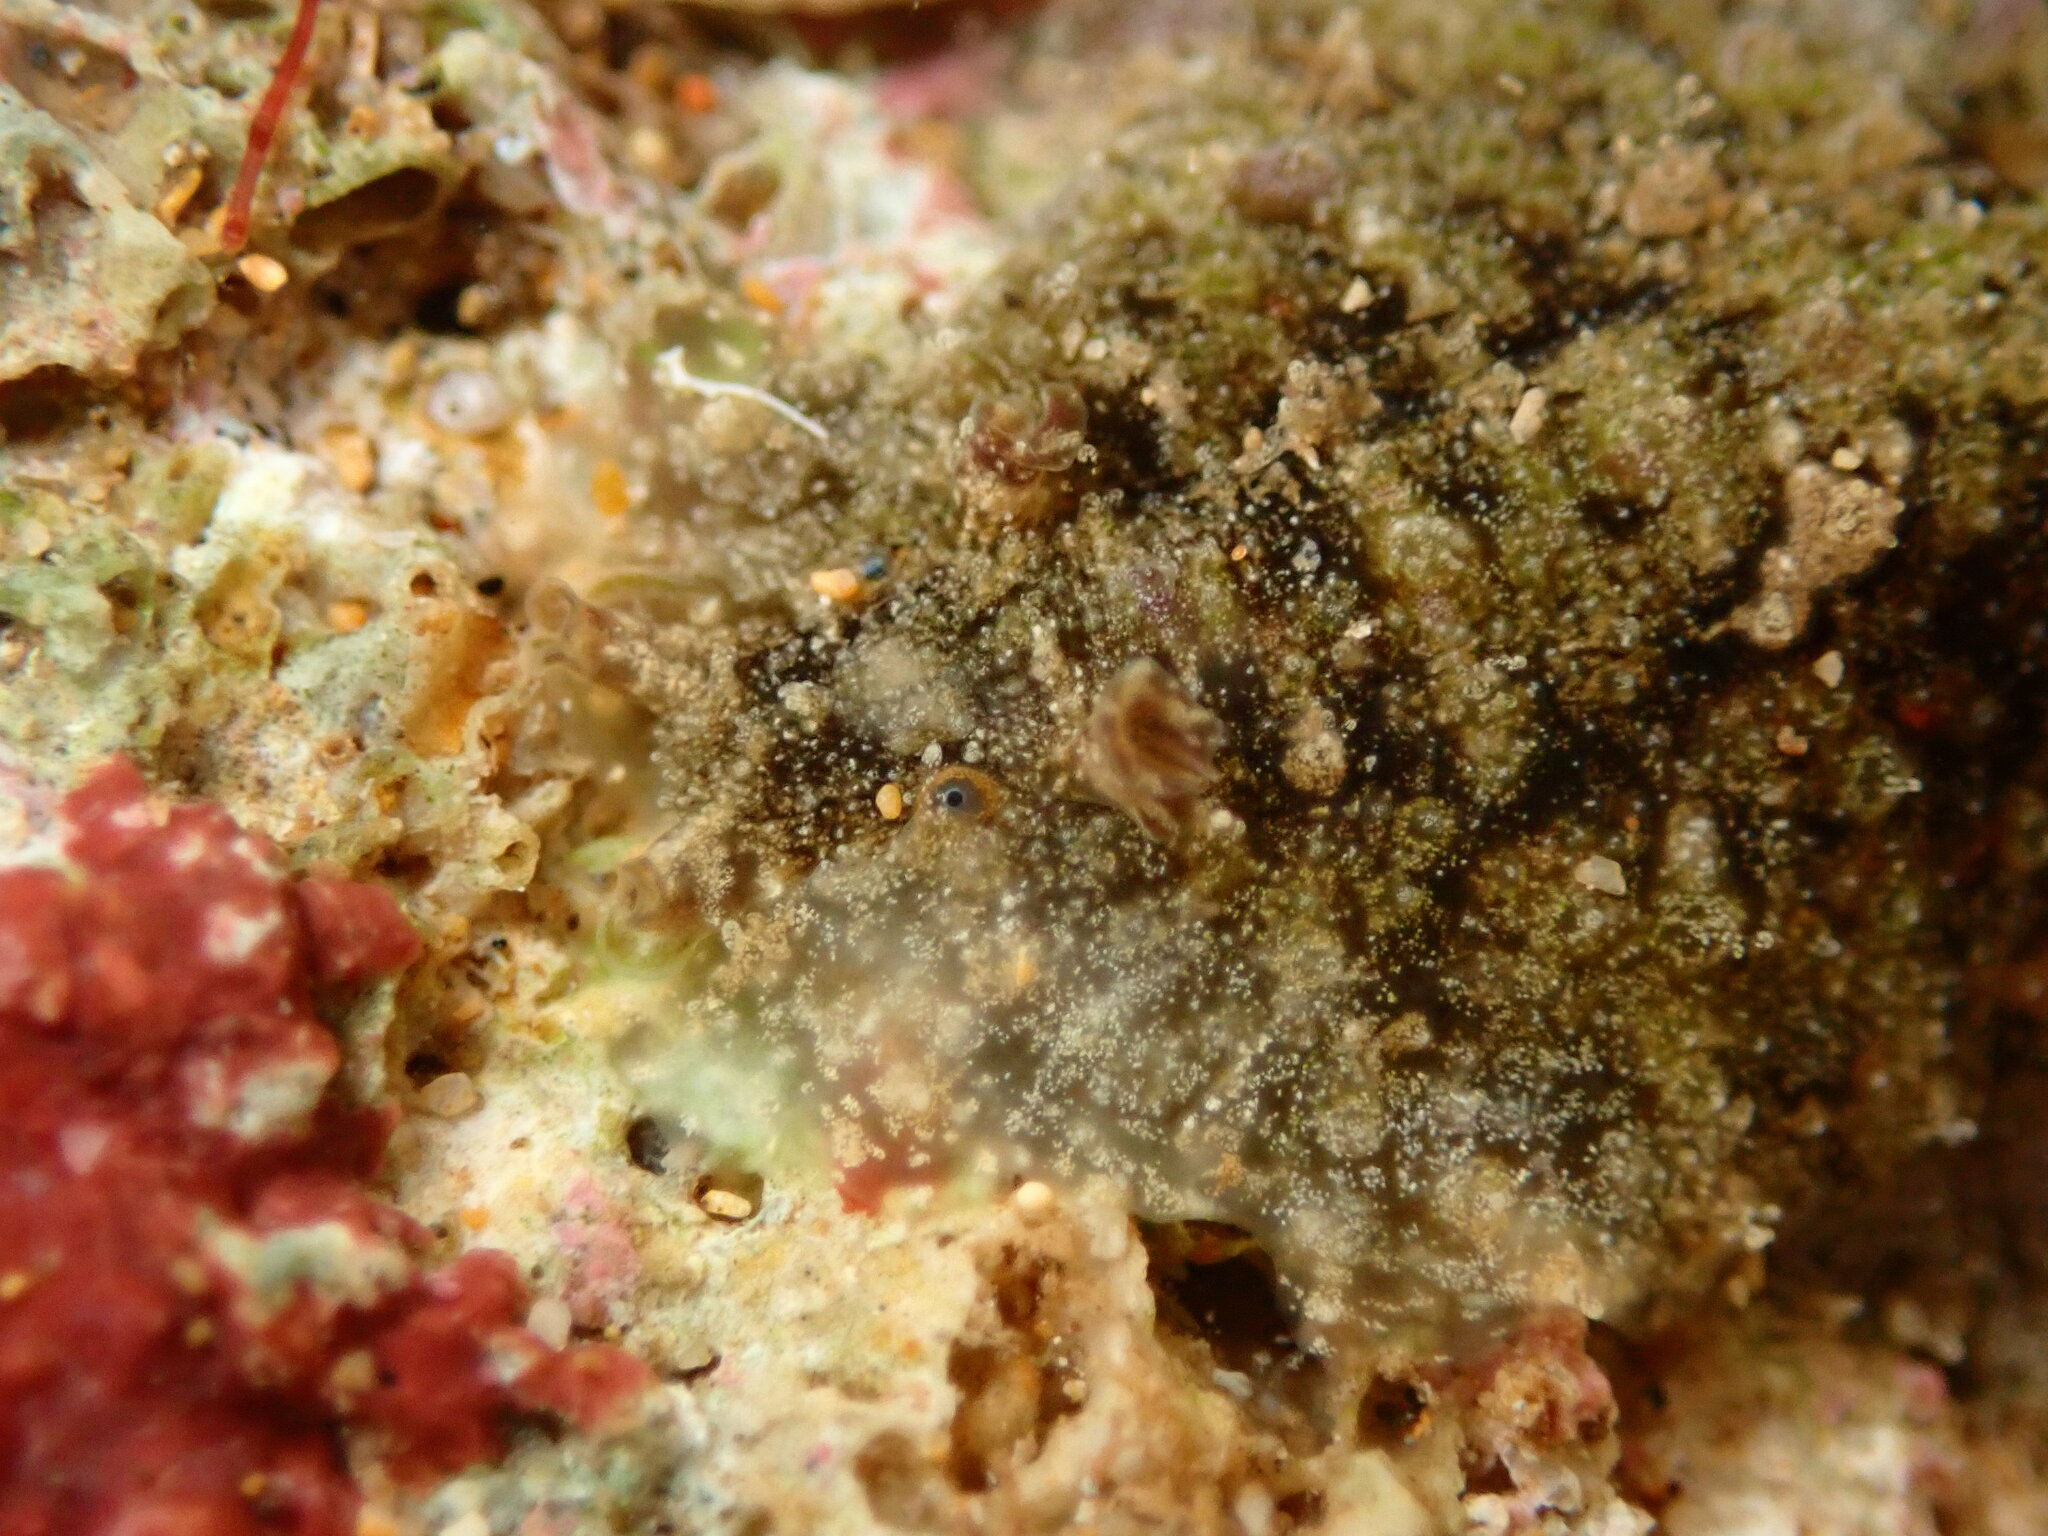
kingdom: Animalia
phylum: Mollusca
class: Gastropoda
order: Aplysiida
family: Aplysiidae
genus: Dolabrifera
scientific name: Dolabrifera dolabrifera
